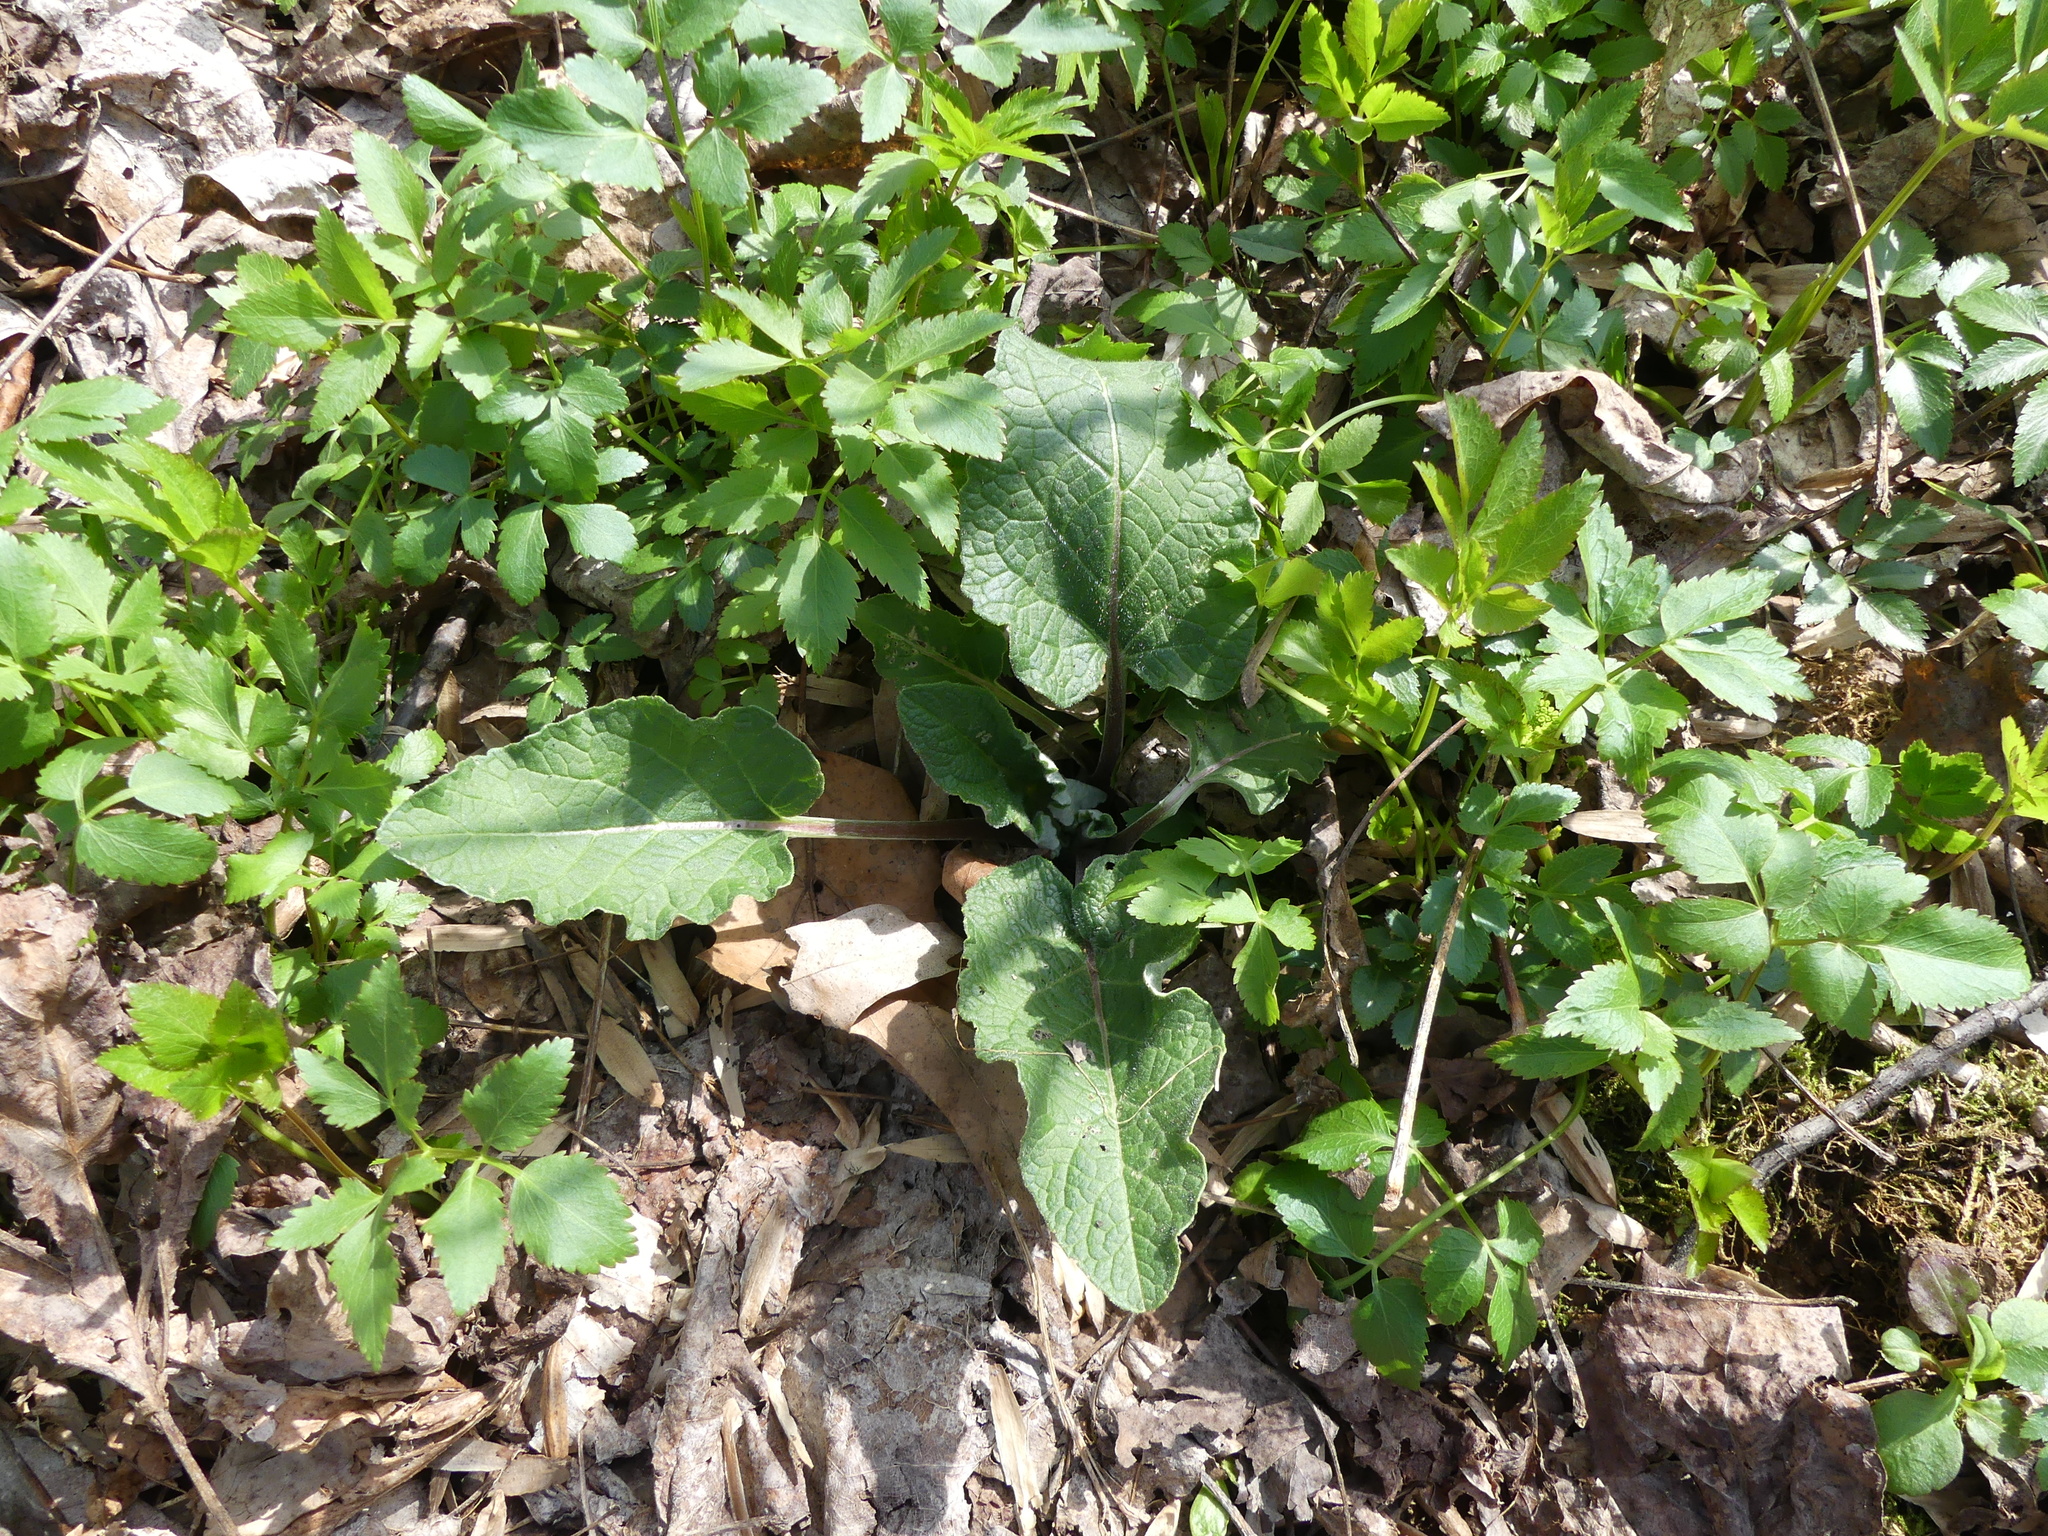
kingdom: Plantae
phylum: Tracheophyta
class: Magnoliopsida
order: Asterales
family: Asteraceae
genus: Arctium
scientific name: Arctium minus
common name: Lesser burdock
